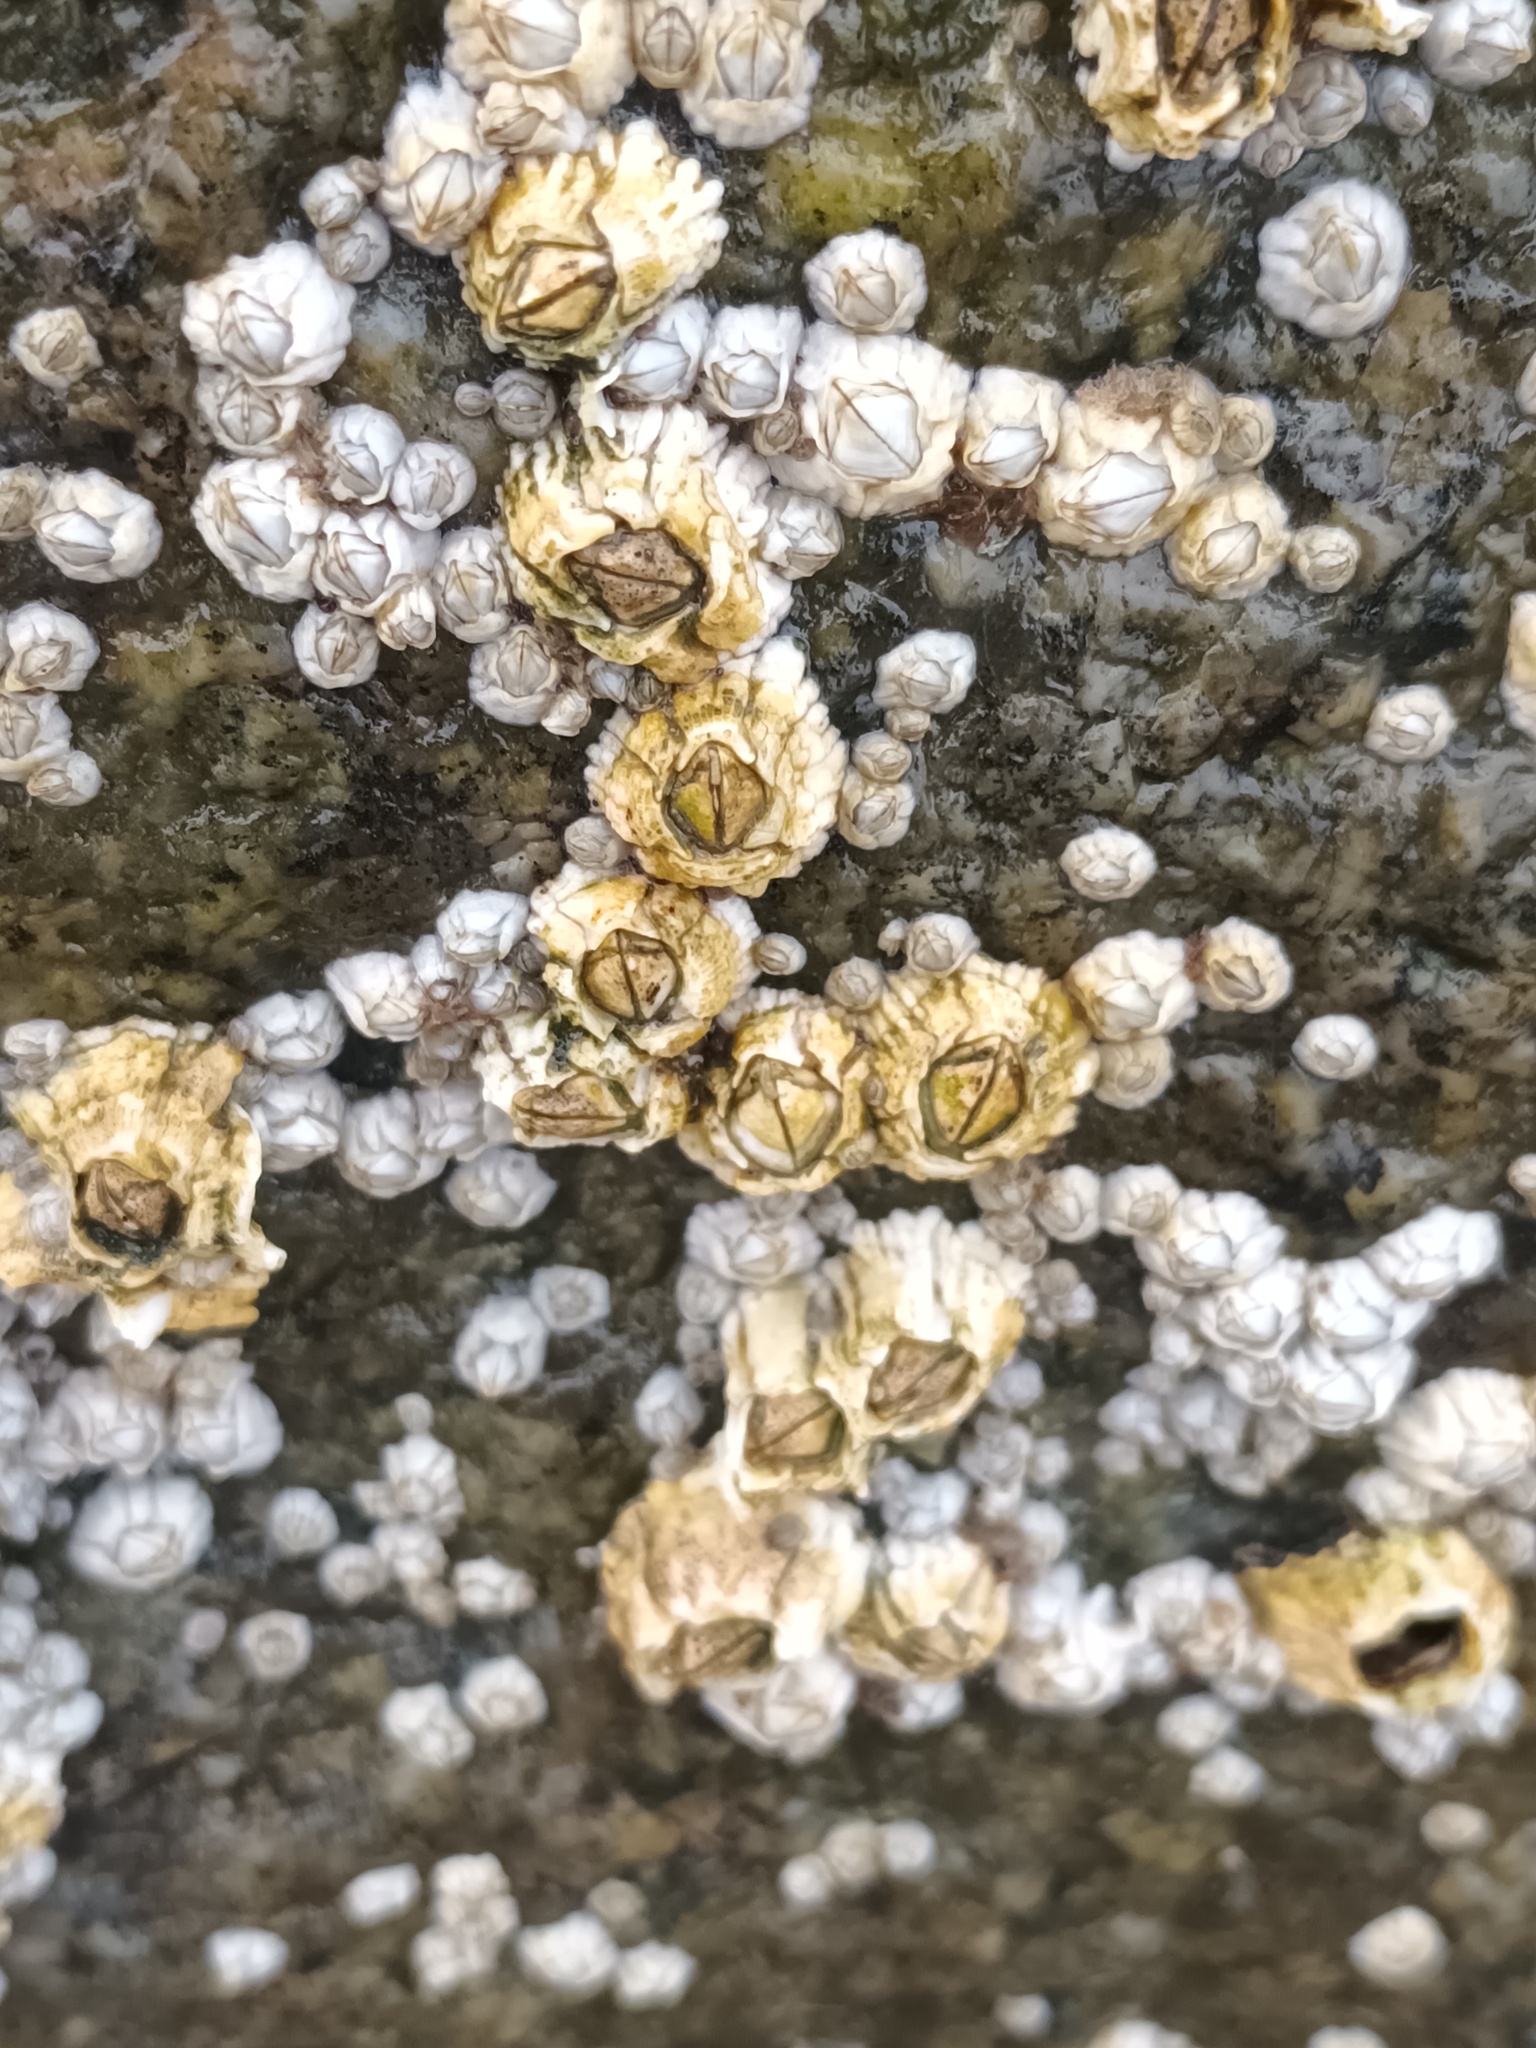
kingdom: Animalia
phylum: Arthropoda
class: Maxillopoda
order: Sessilia
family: Archaeobalanidae
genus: Semibalanus
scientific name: Semibalanus balanoides
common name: Acorn barnacle
